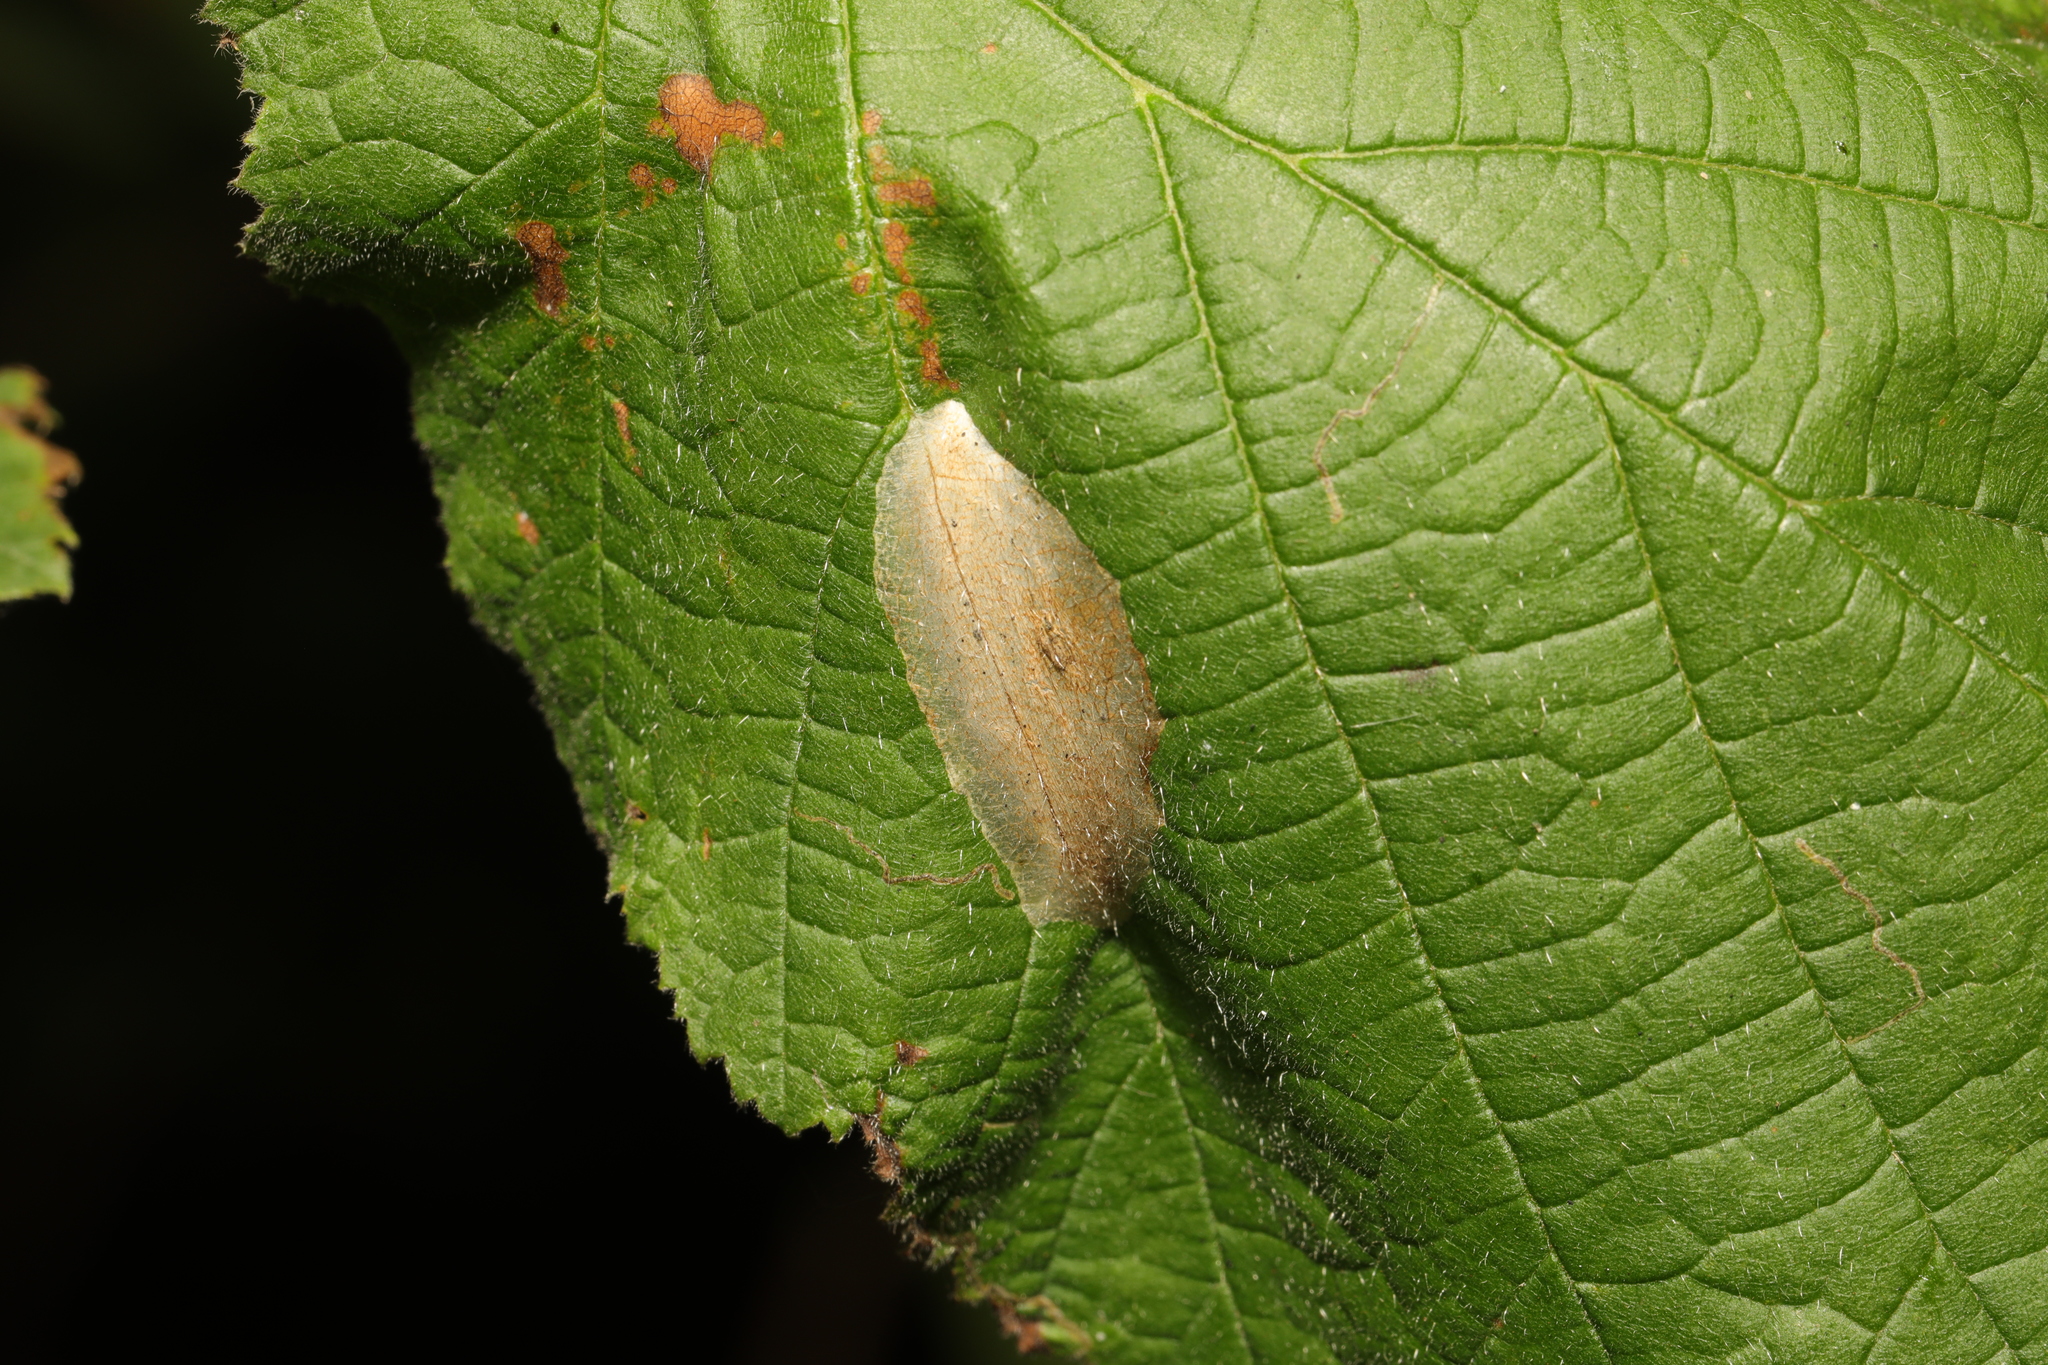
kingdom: Animalia
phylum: Arthropoda
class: Insecta
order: Lepidoptera
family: Gracillariidae
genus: Phyllonorycter
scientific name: Phyllonorycter coryli
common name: Nut-leaf blister moth
